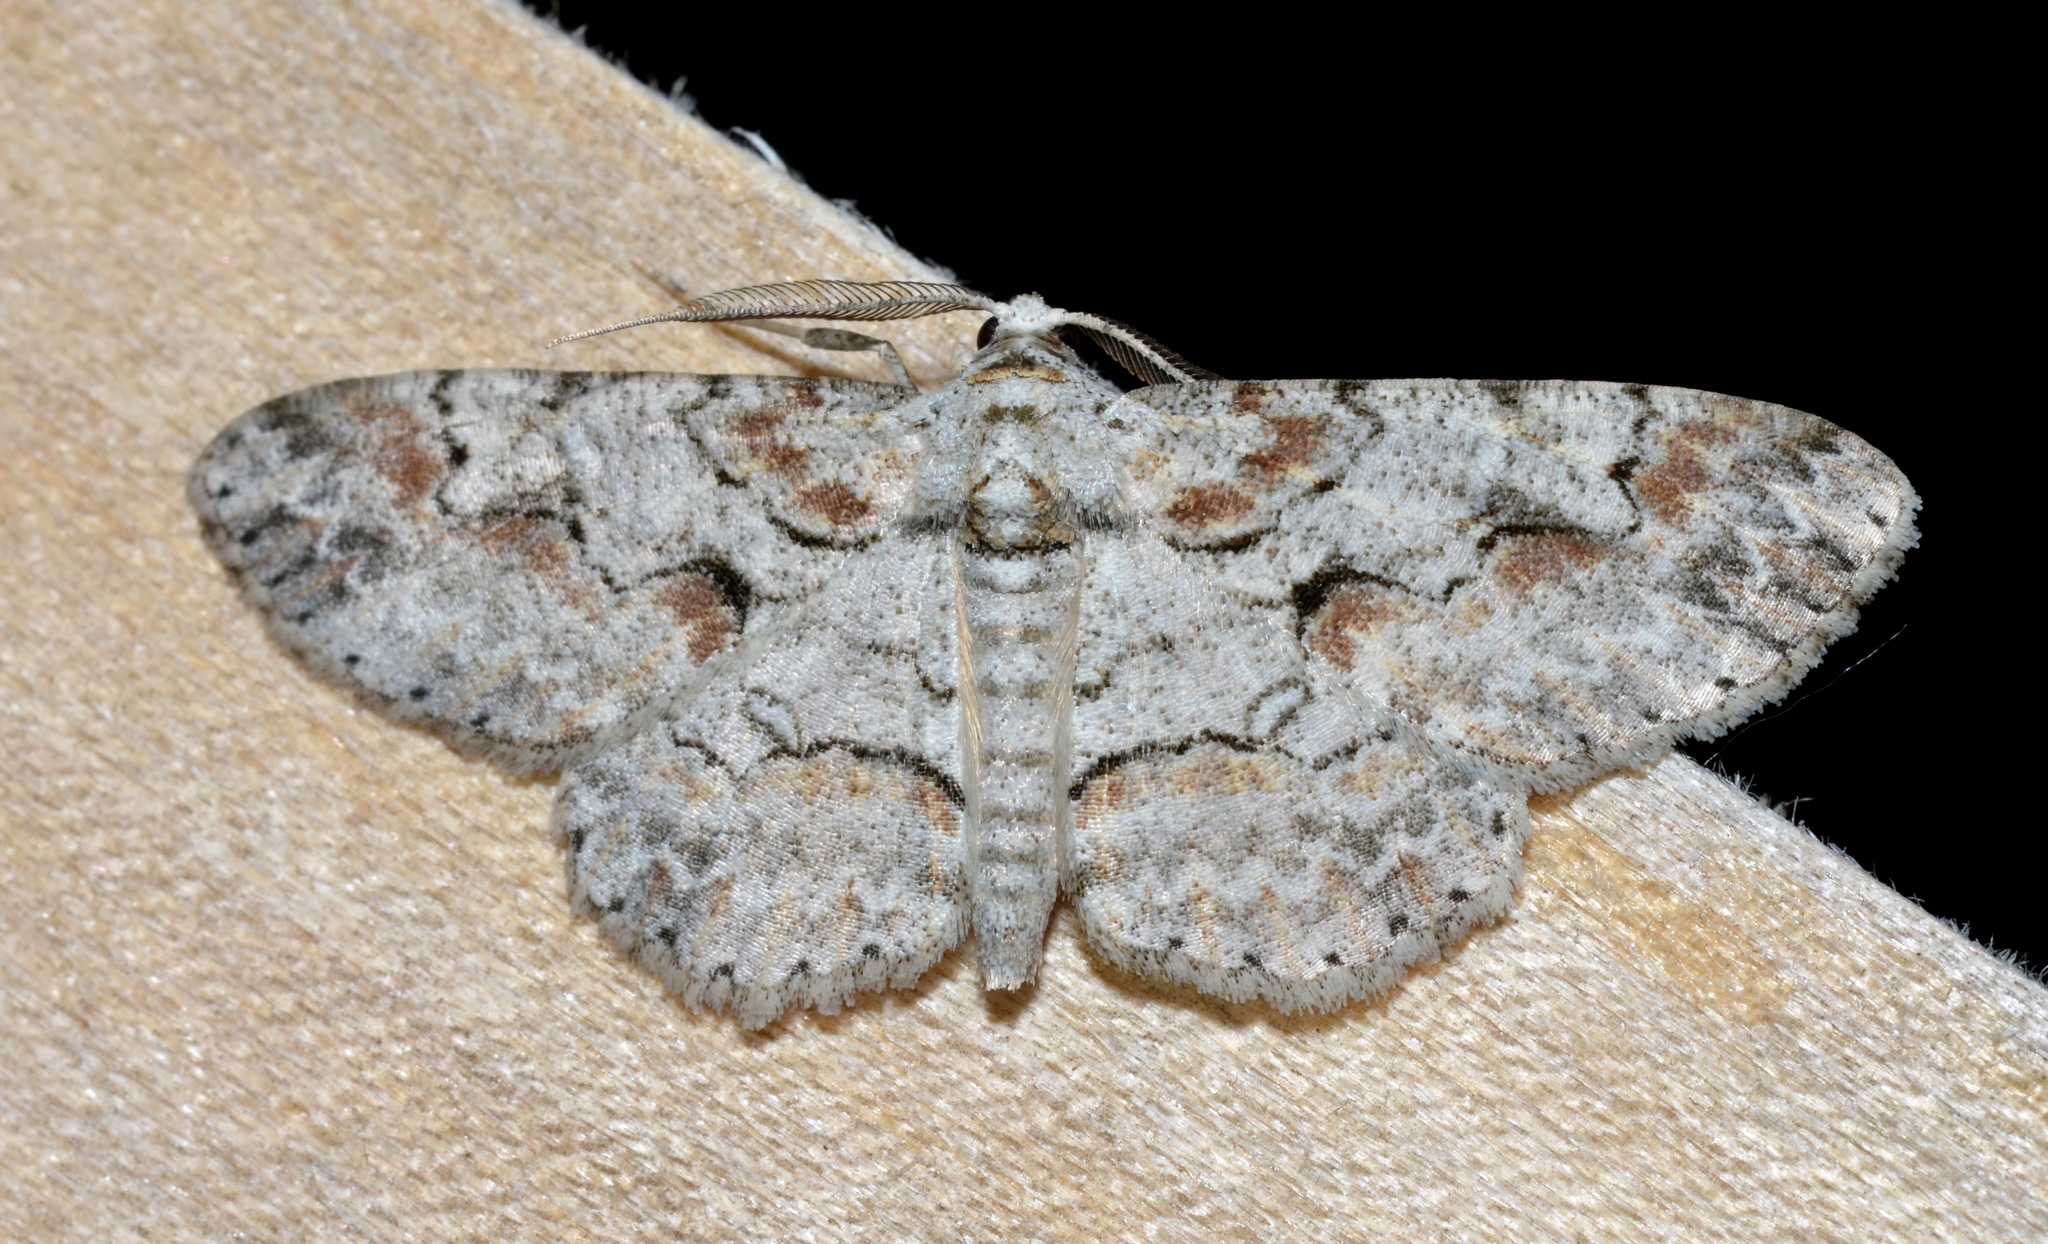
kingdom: Animalia
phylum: Arthropoda
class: Insecta
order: Lepidoptera
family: Geometridae
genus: Iridopsis
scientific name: Iridopsis defectaria
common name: Brown-shaded gray
